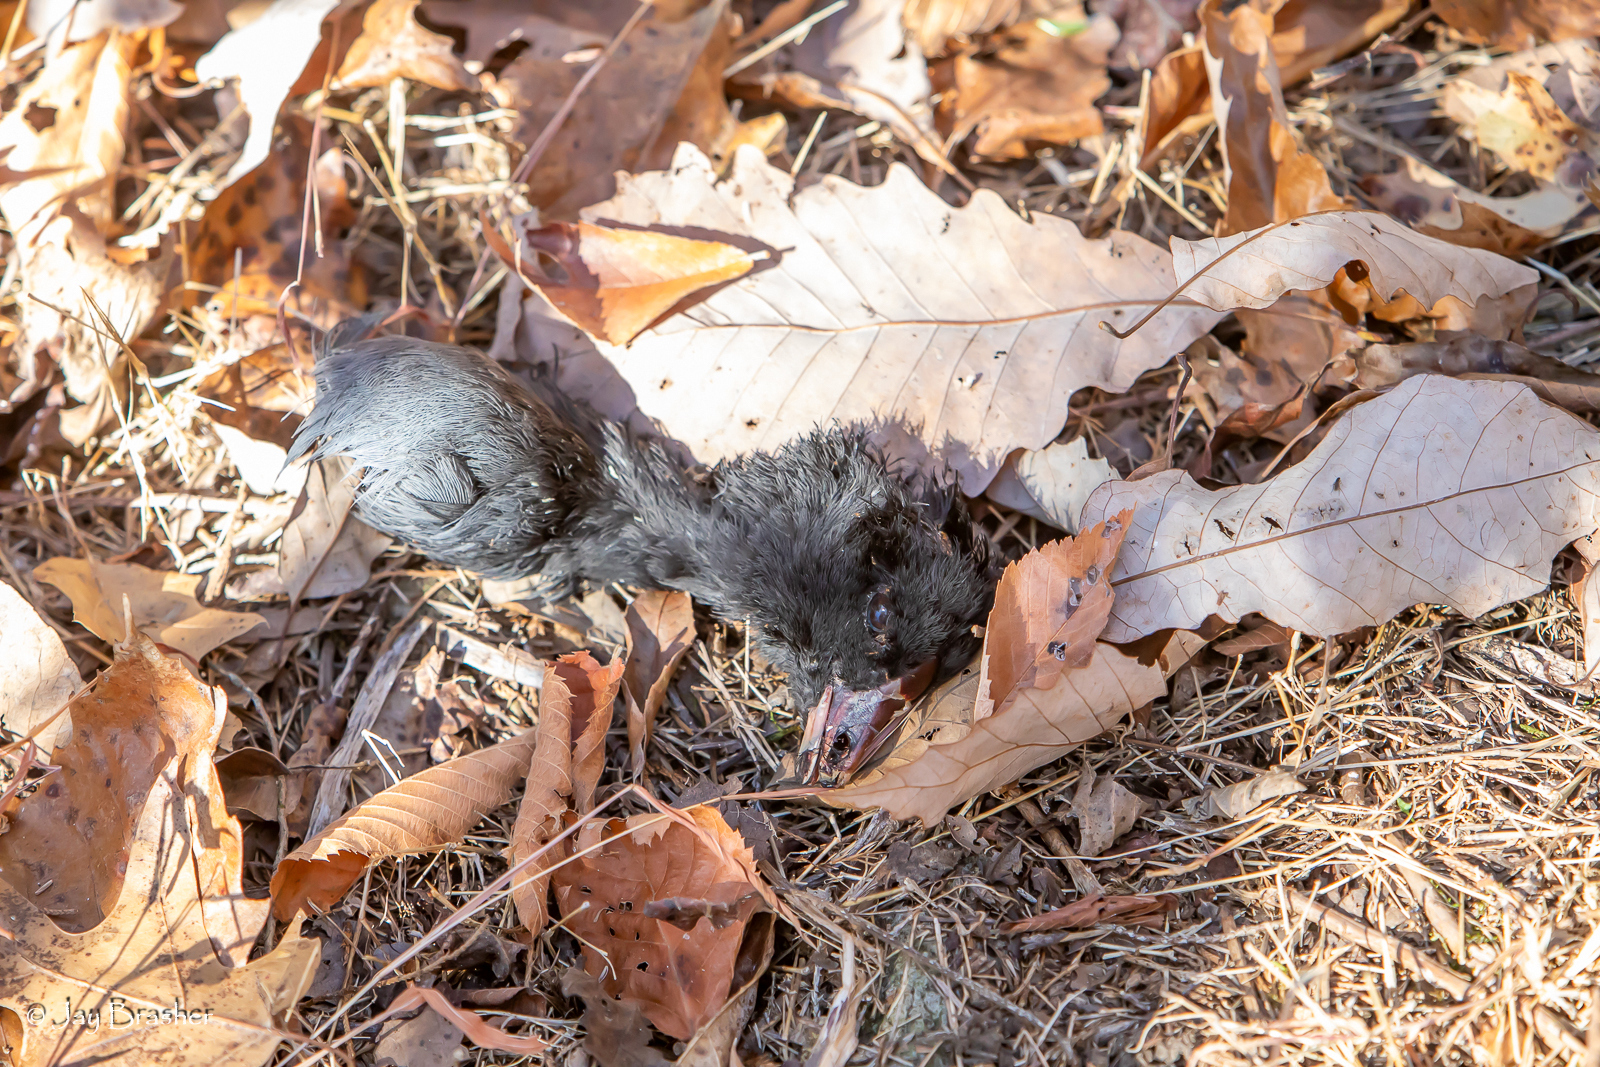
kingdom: Animalia
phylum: Chordata
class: Aves
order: Gruiformes
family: Rallidae
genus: Fulica
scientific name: Fulica americana
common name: American coot
